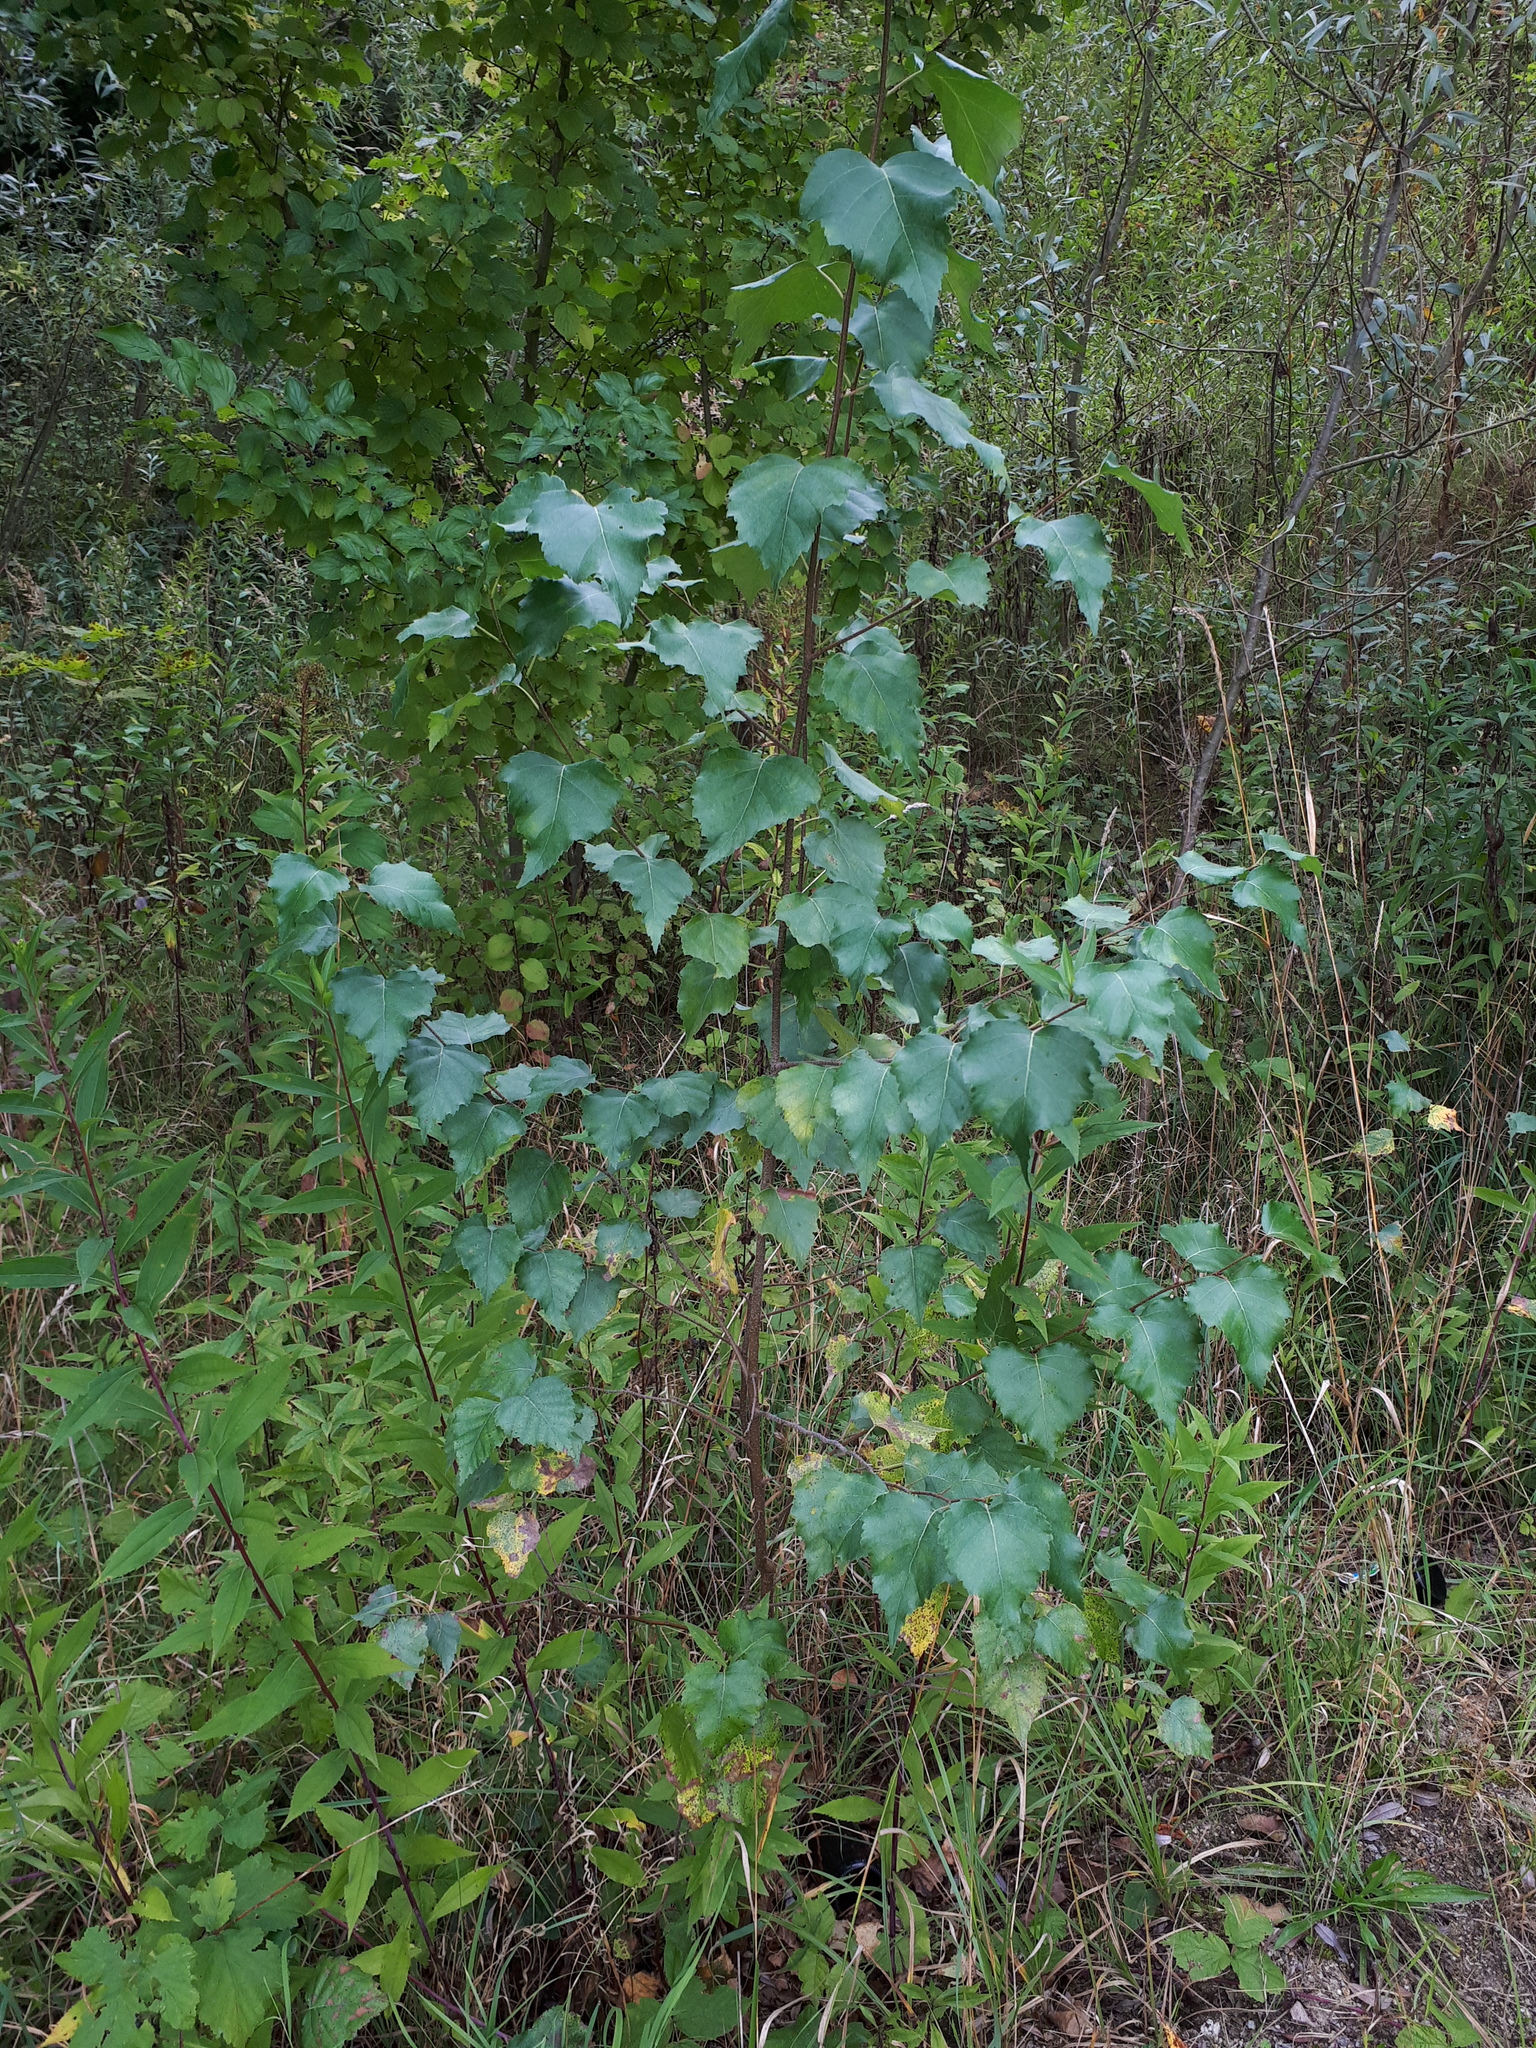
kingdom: Plantae
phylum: Tracheophyta
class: Magnoliopsida
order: Fagales
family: Betulaceae
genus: Betula
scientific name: Betula pendula
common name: Silver birch
